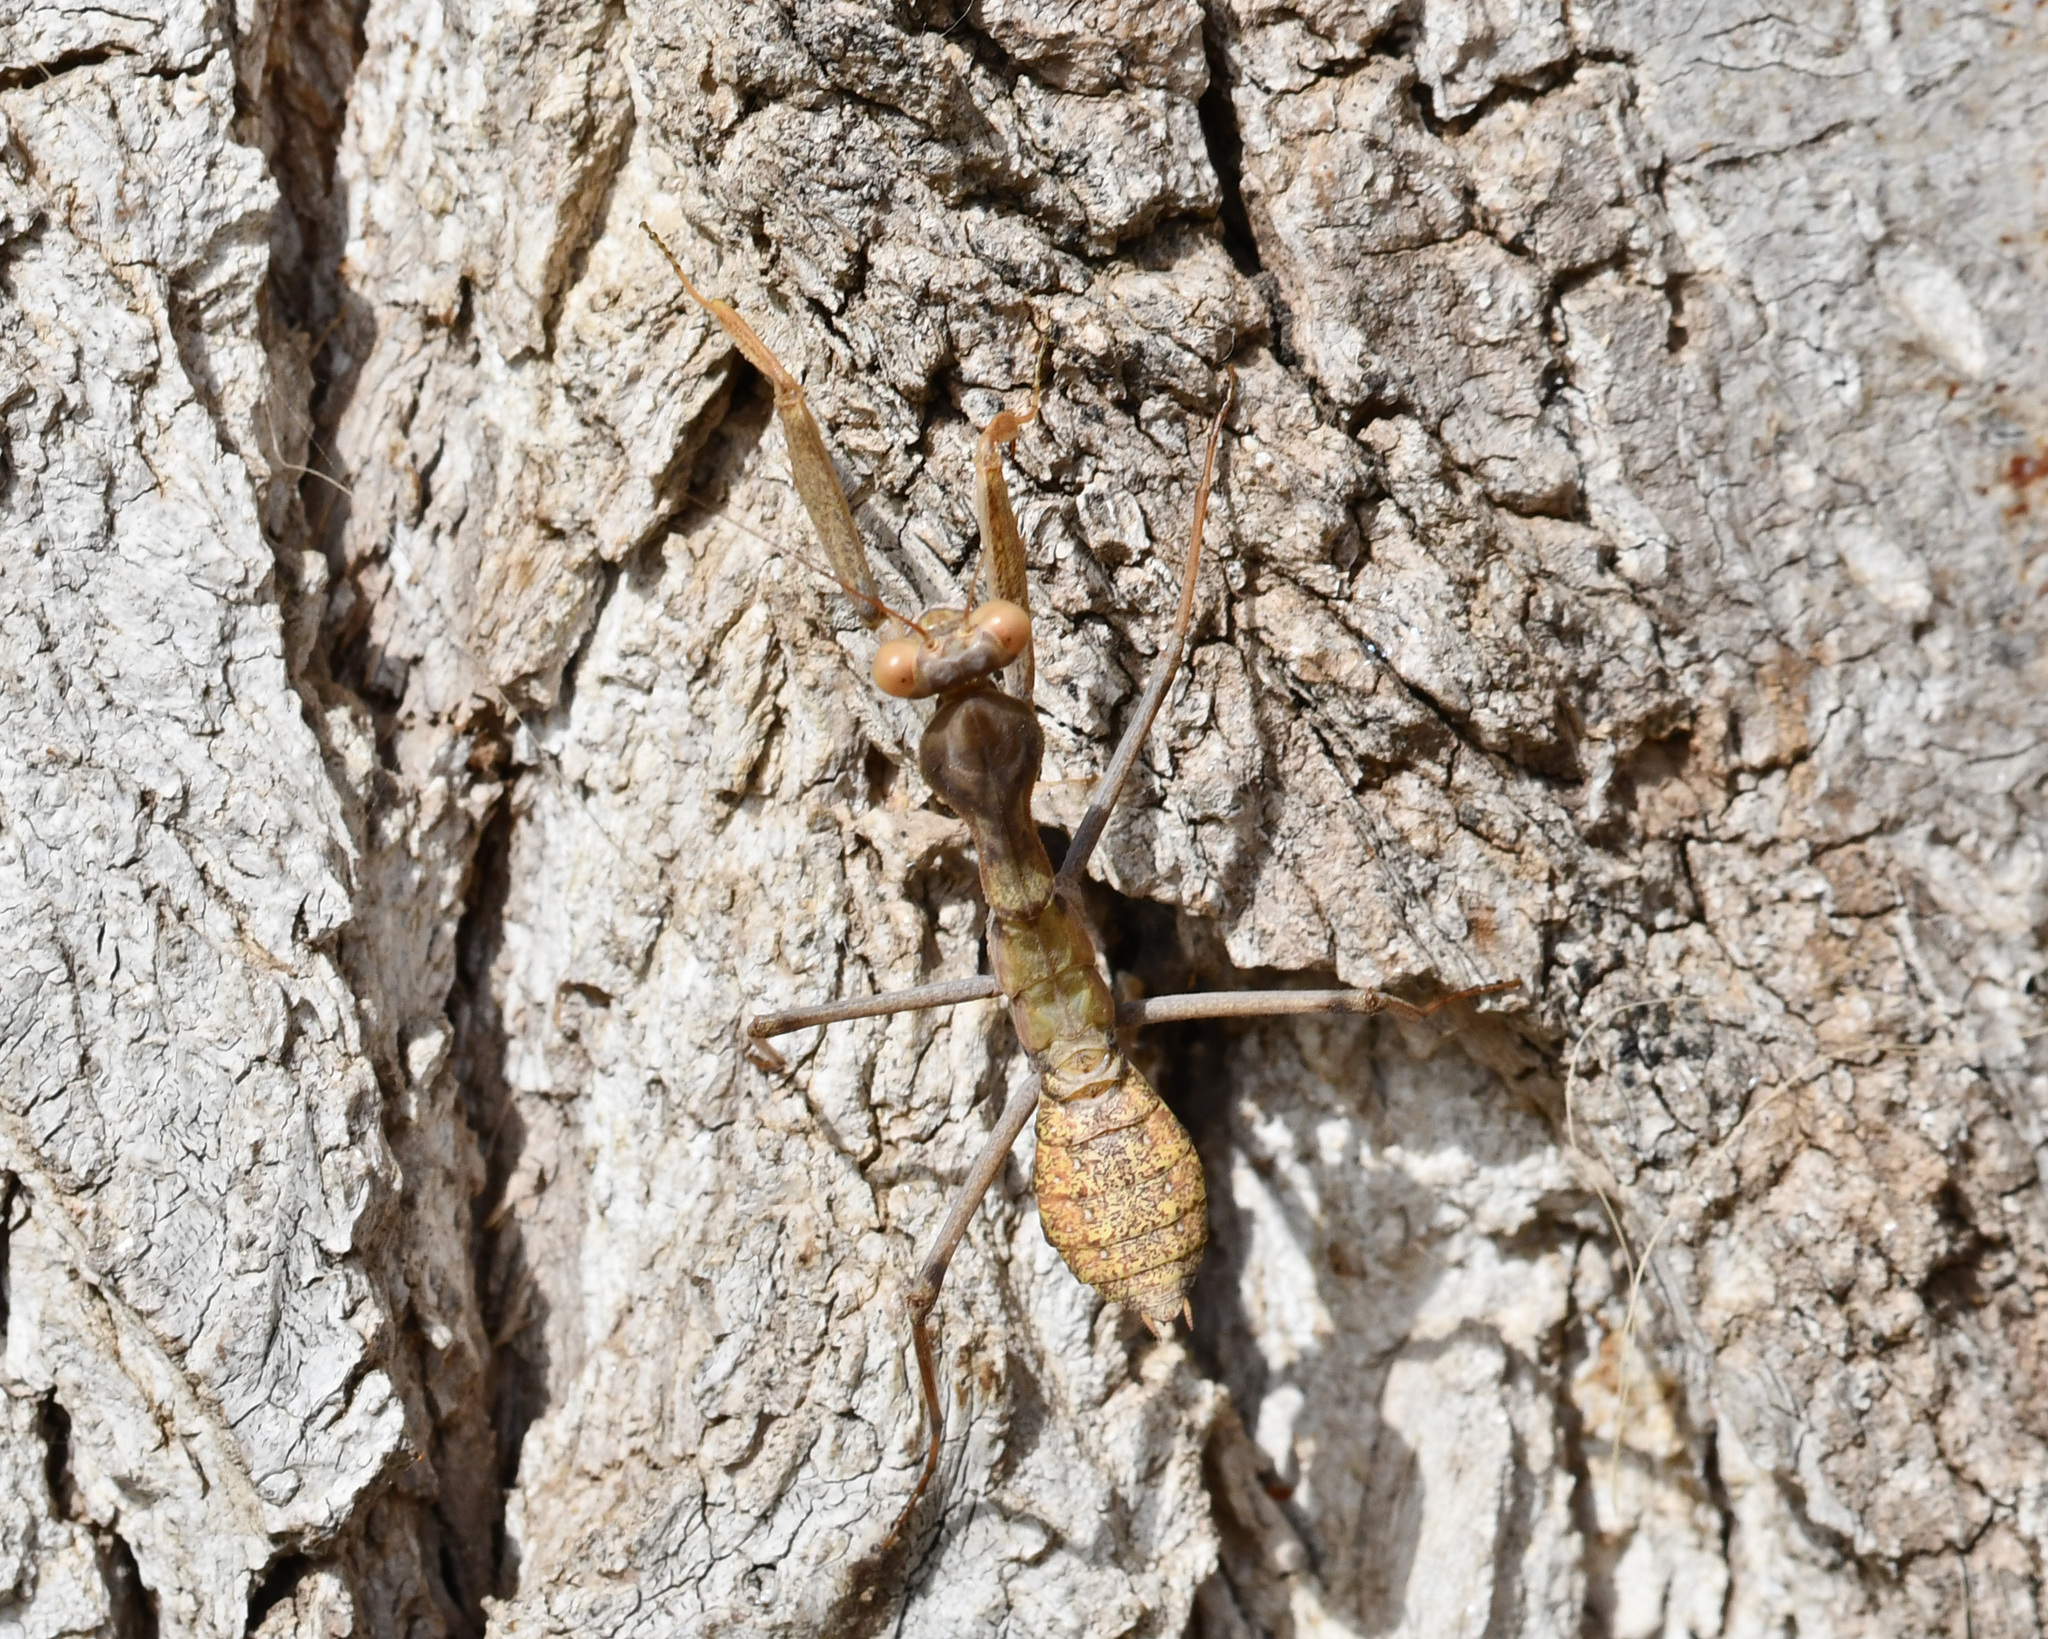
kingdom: Animalia
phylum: Arthropoda
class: Insecta
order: Mantodea
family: Mantidae
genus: Sphodromantis
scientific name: Sphodromantis viridis
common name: Giant african mantis
